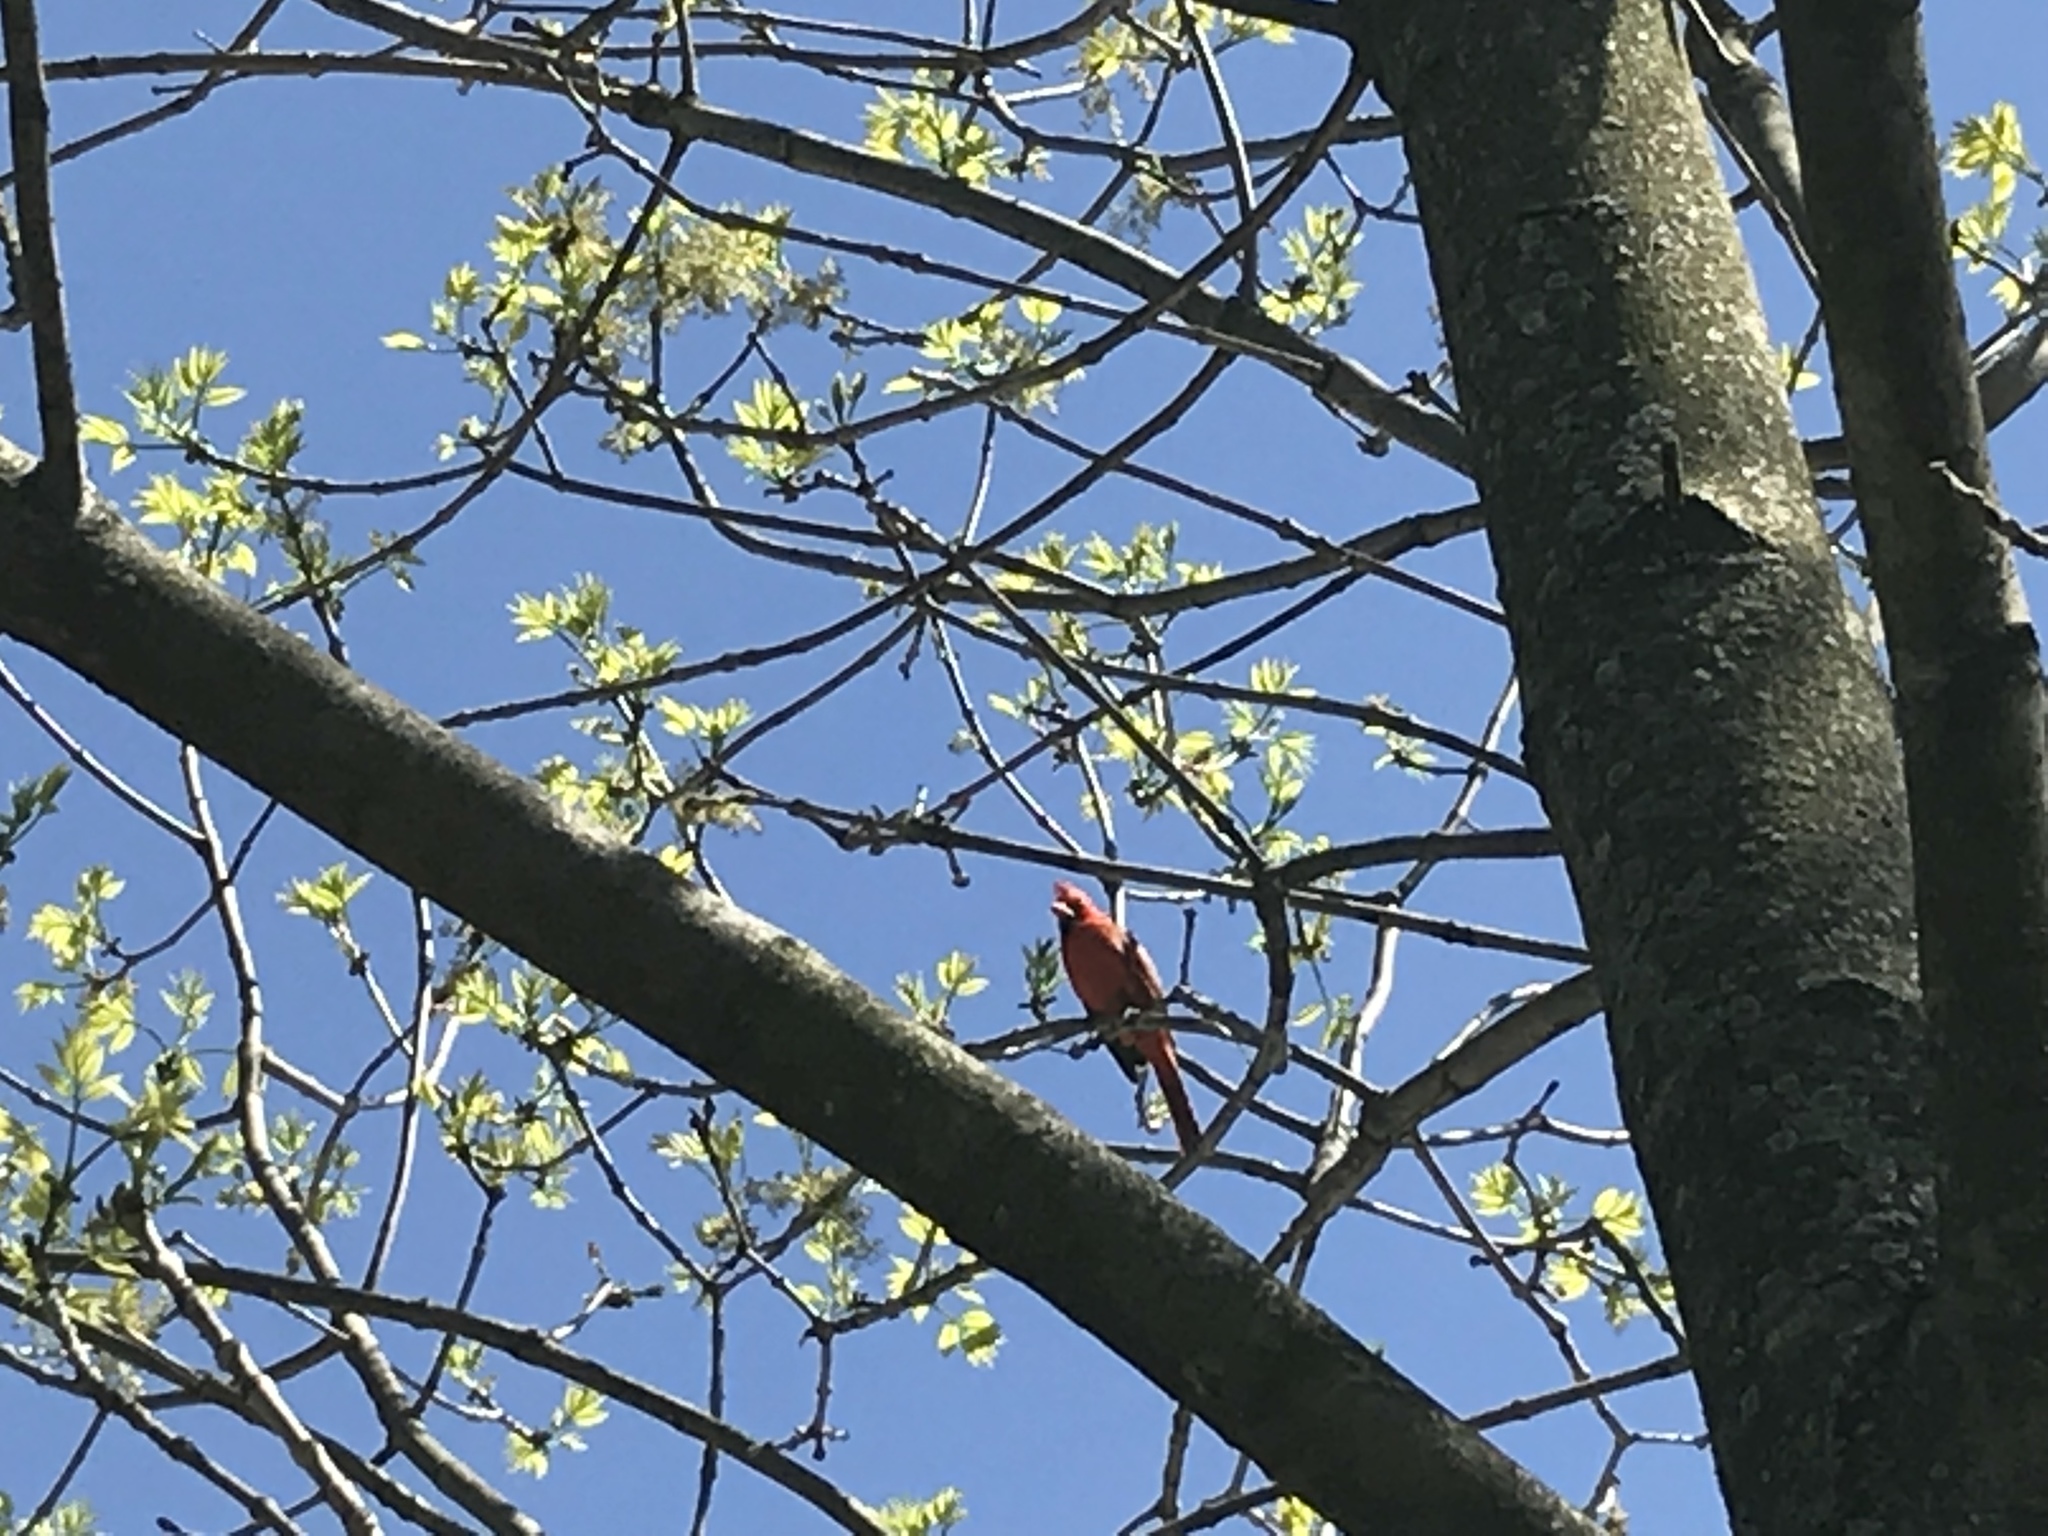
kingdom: Animalia
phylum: Chordata
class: Aves
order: Passeriformes
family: Cardinalidae
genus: Cardinalis
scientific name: Cardinalis cardinalis
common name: Northern cardinal
